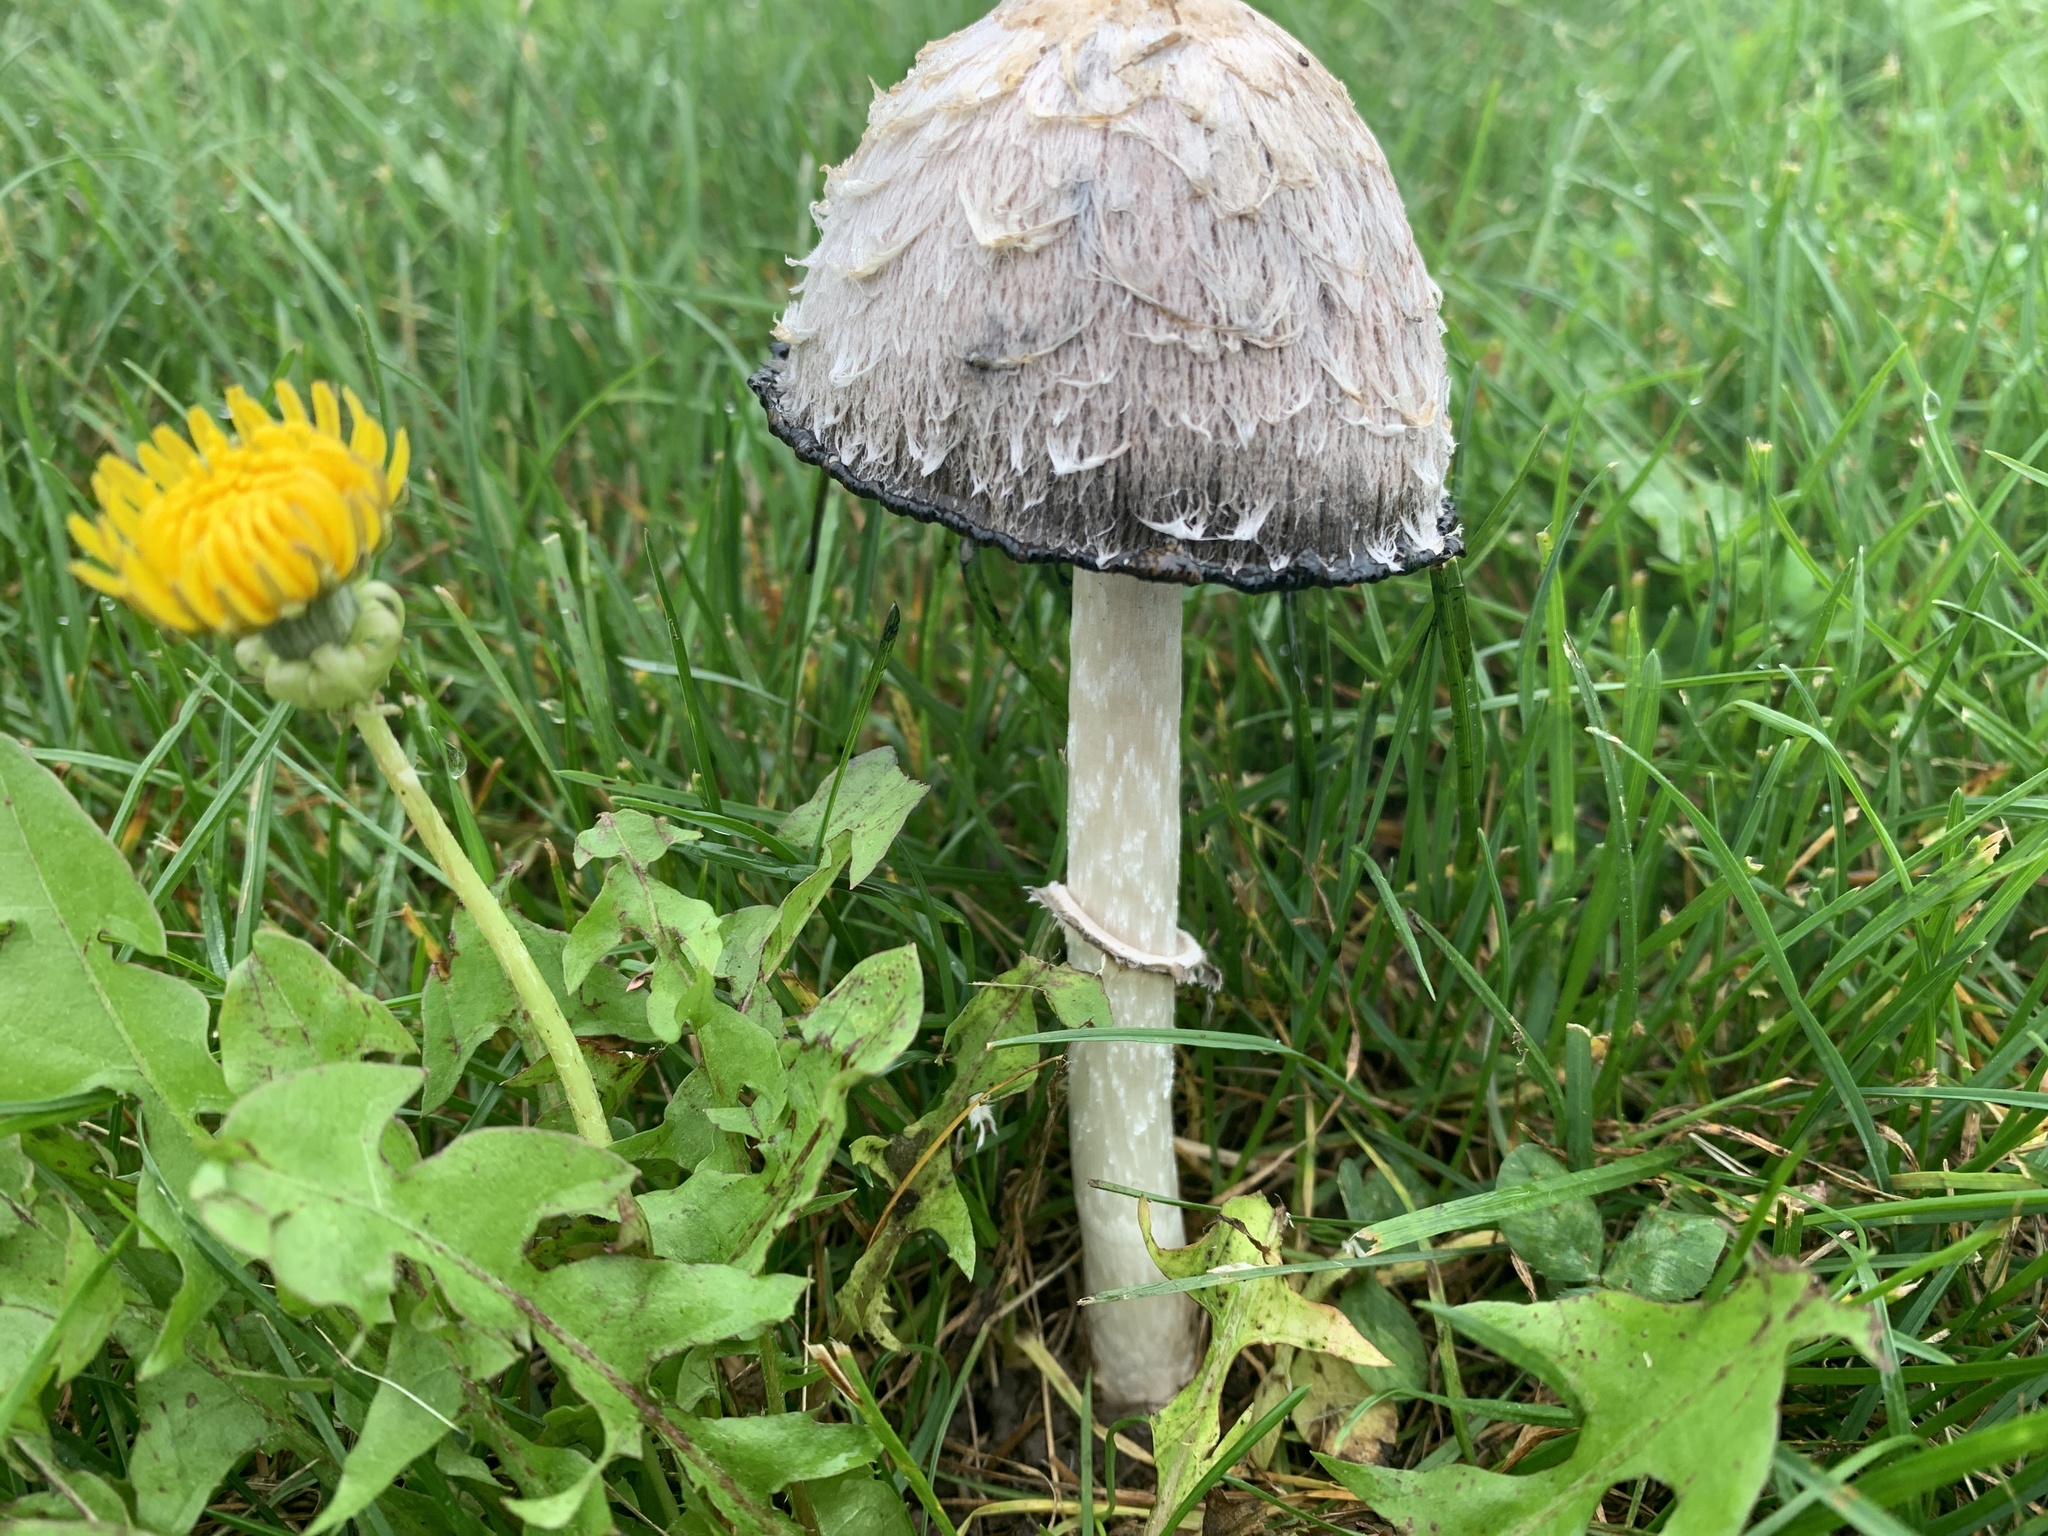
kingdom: Fungi
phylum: Basidiomycota
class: Agaricomycetes
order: Agaricales
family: Agaricaceae
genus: Coprinus
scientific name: Coprinus comatus
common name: Lawyer's wig
